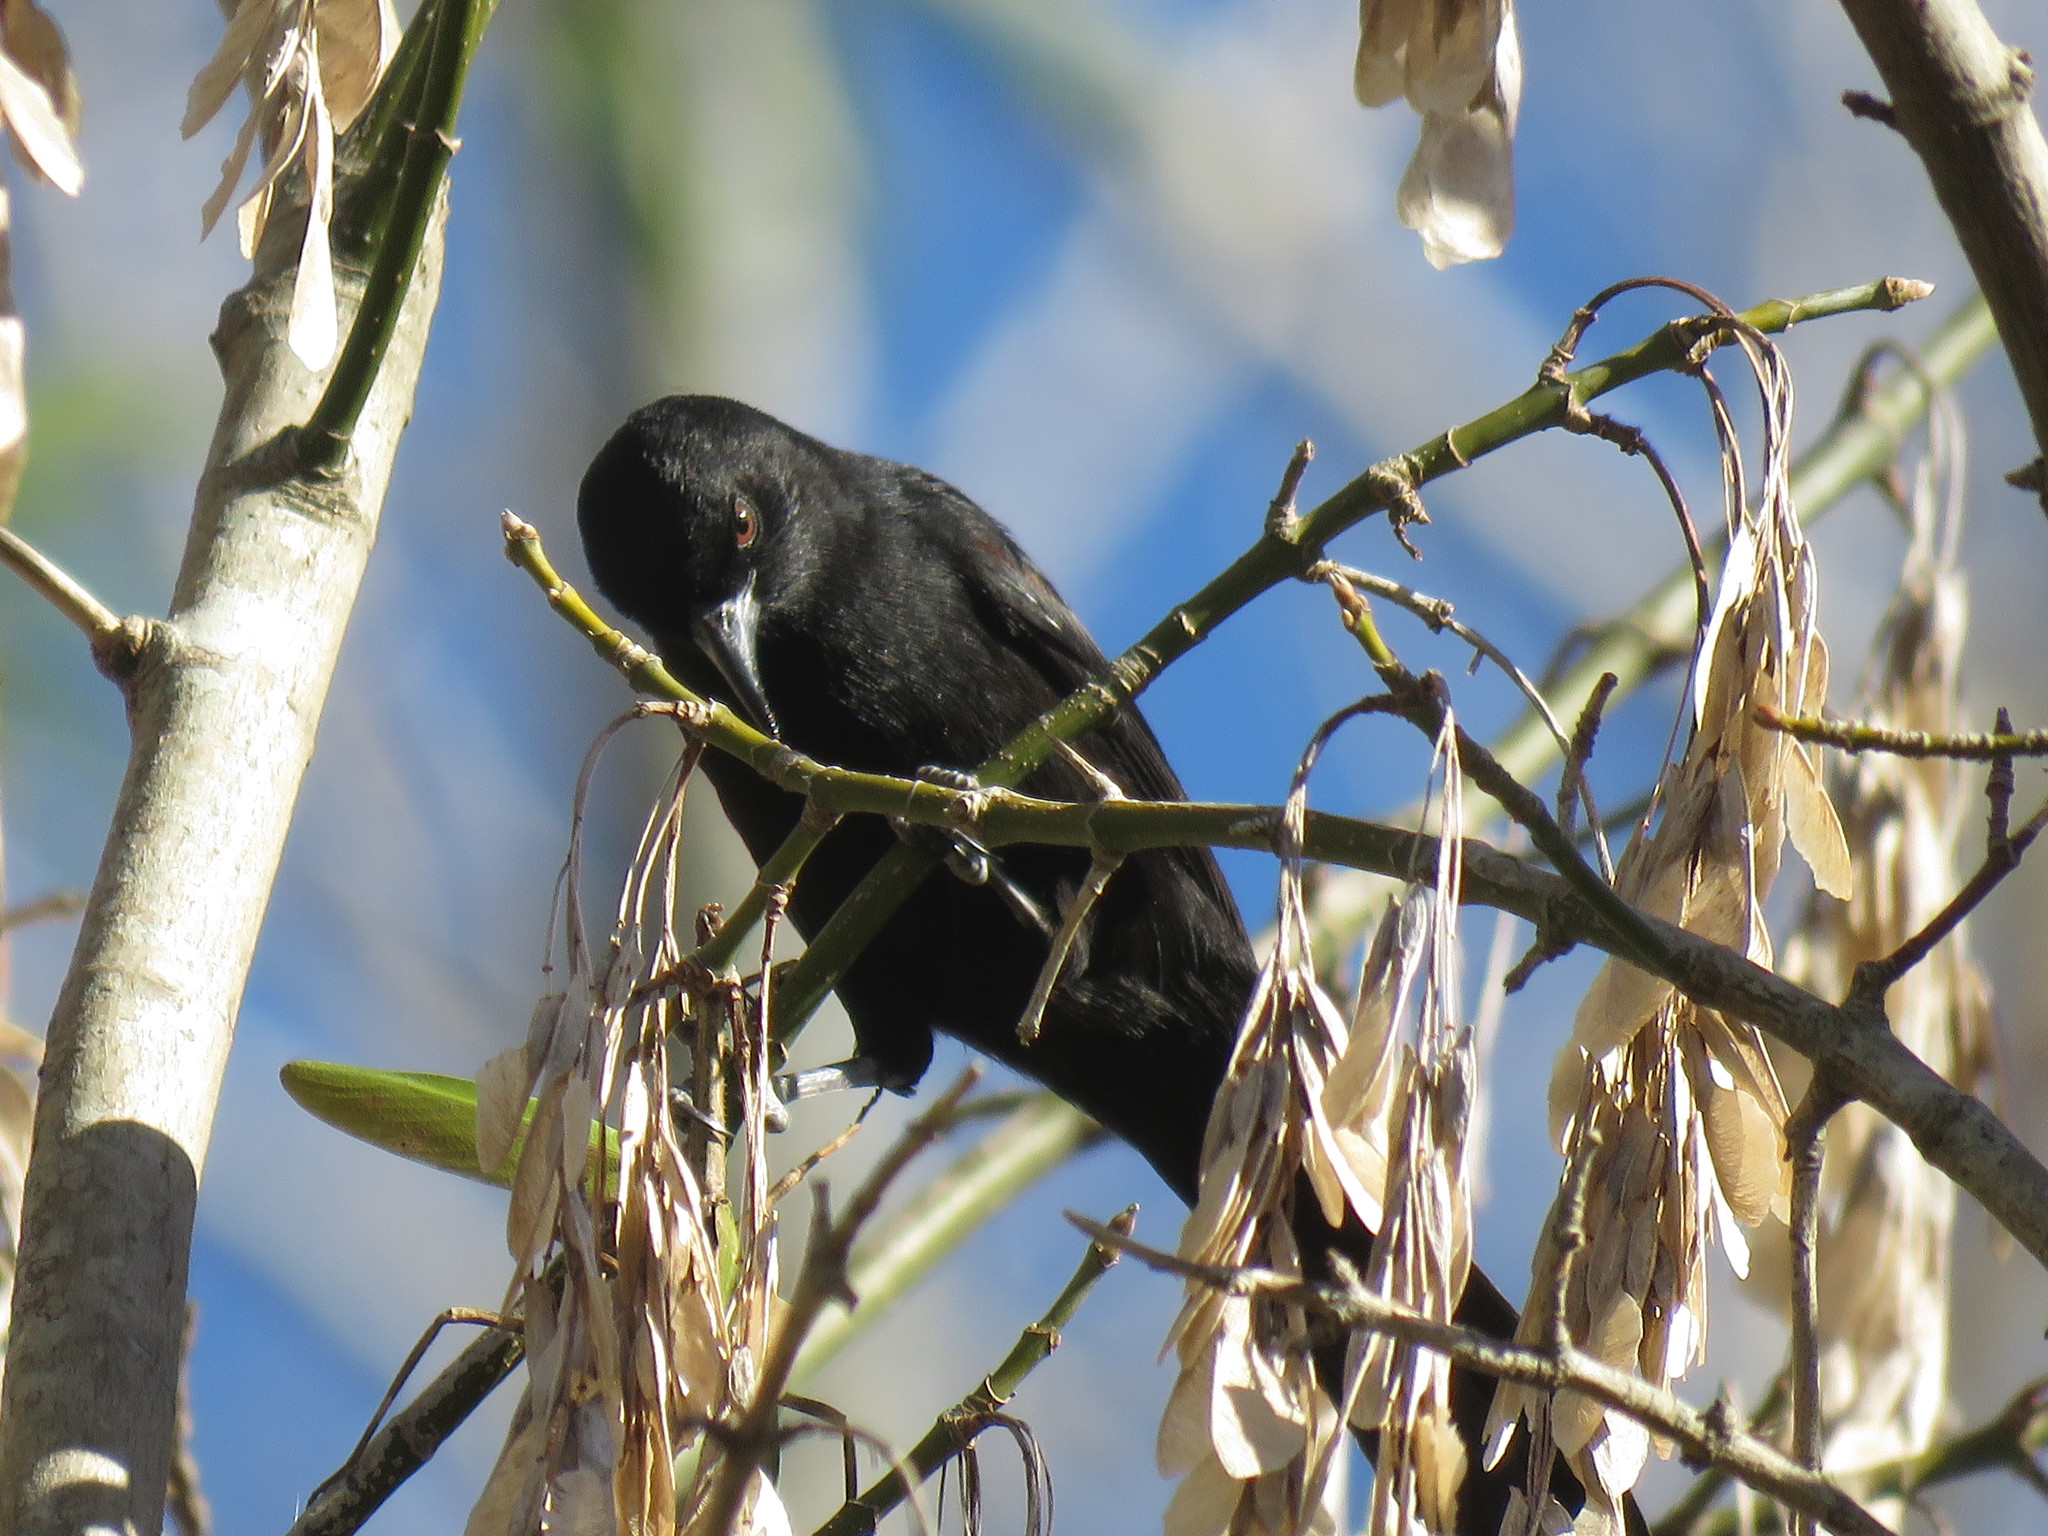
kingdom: Animalia
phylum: Chordata
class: Aves
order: Passeriformes
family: Icteridae
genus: Icterus
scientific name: Icterus cayanensis
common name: Epaulet oriole
